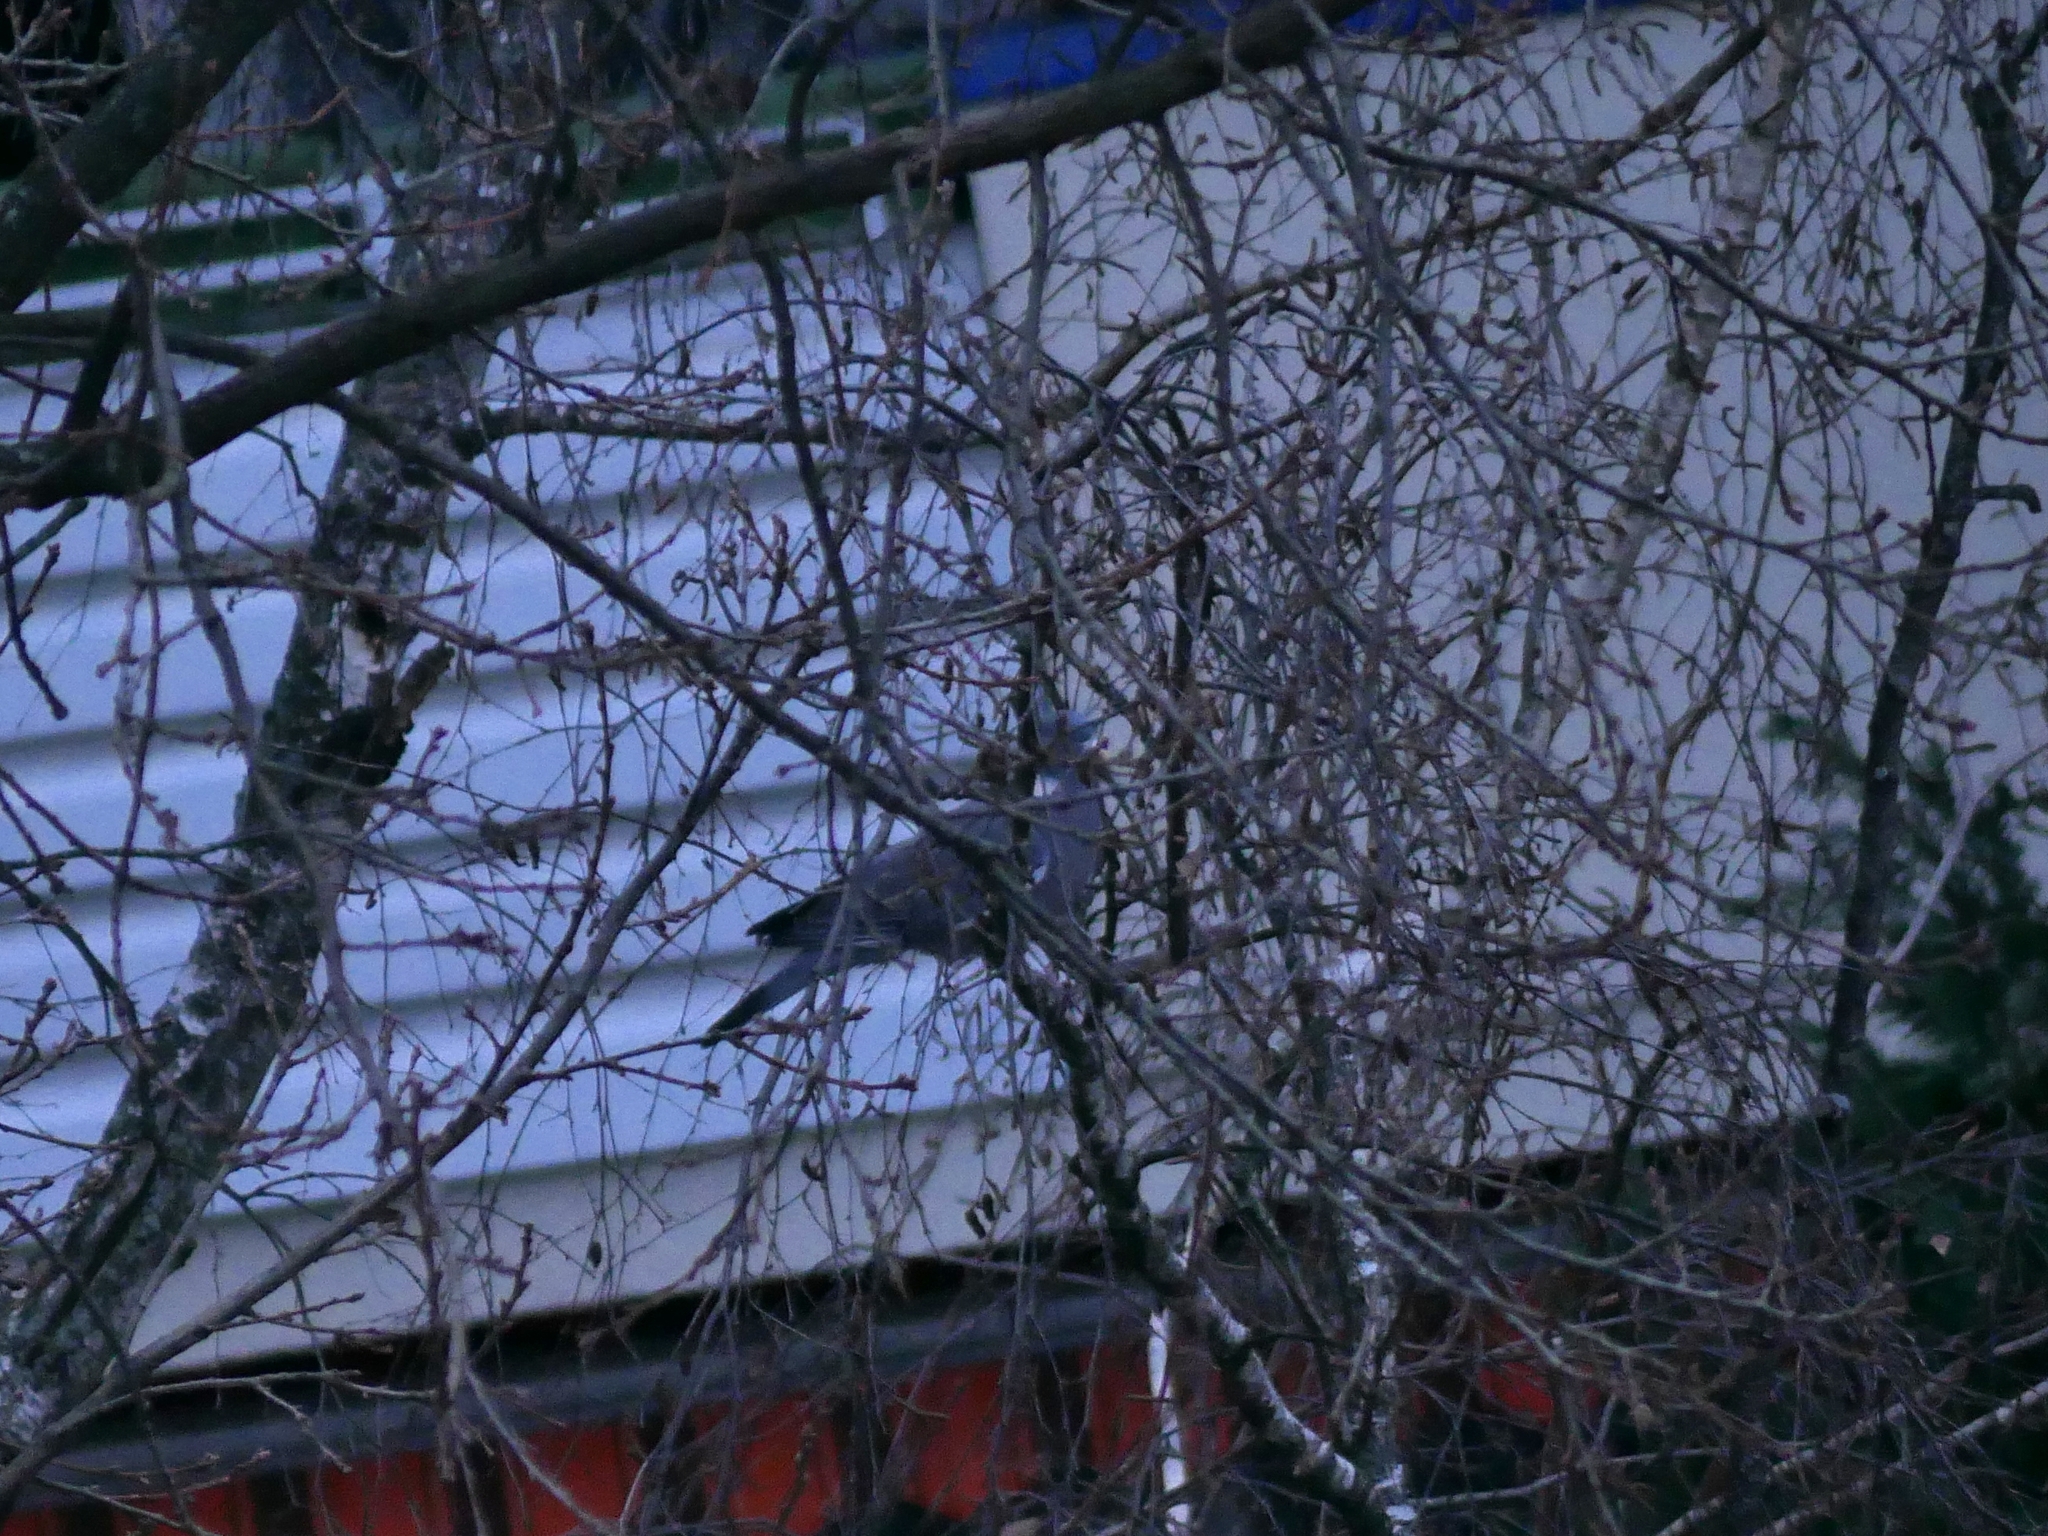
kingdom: Animalia
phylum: Chordata
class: Aves
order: Columbiformes
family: Columbidae
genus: Columba
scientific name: Columba palumbus
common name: Common wood pigeon
